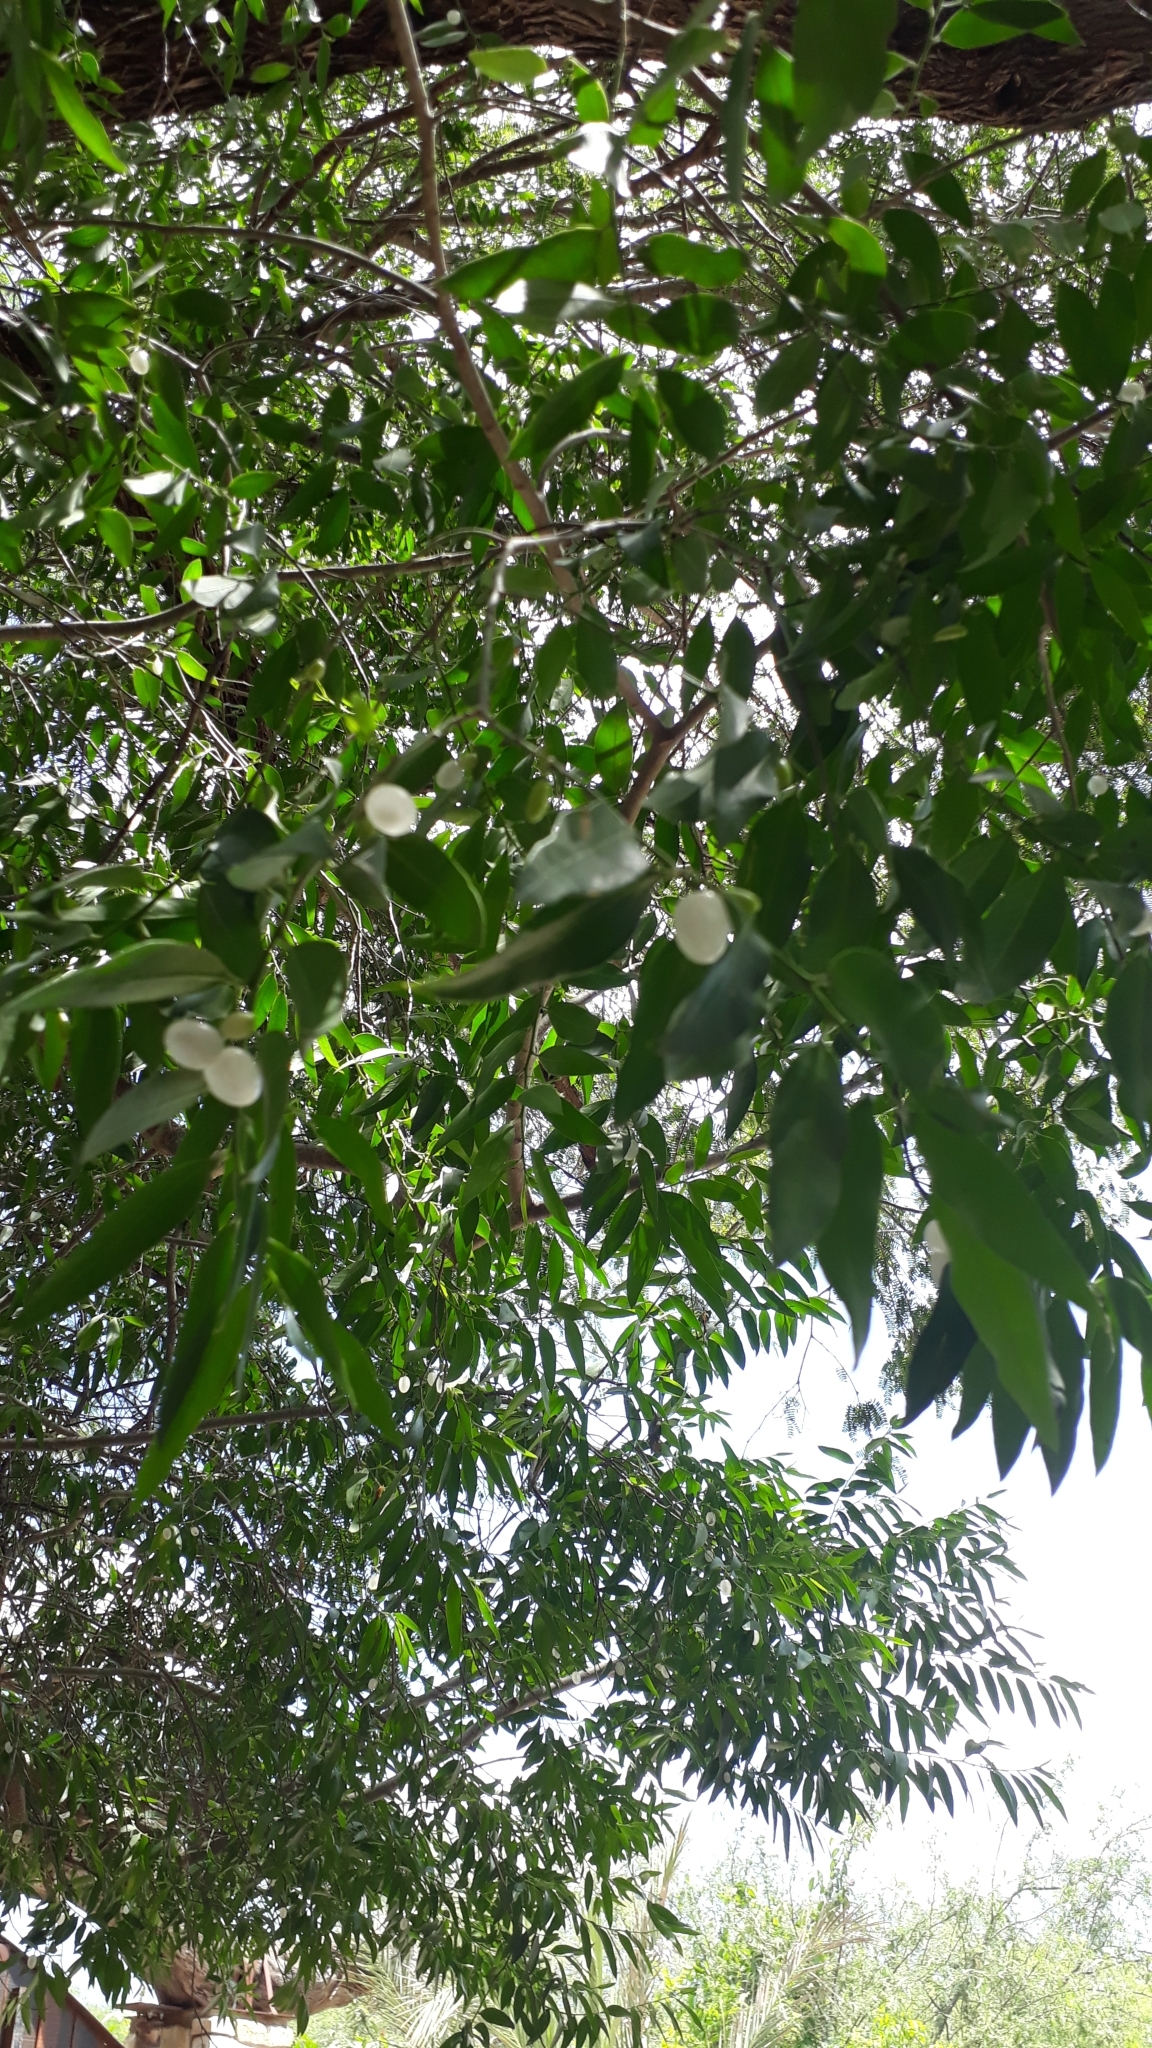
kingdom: Plantae
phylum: Tracheophyta
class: Magnoliopsida
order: Gentianales
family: Apocynaceae
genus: Vallesia
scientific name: Vallesia glabra
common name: Pearlberry
